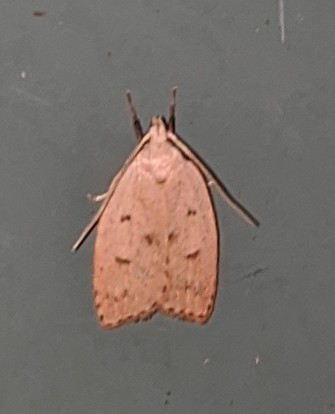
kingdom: Animalia
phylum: Arthropoda
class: Insecta
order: Lepidoptera
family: Peleopodidae
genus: Machimia
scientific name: Machimia tentoriferella
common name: Gold-striped leaftier moth
